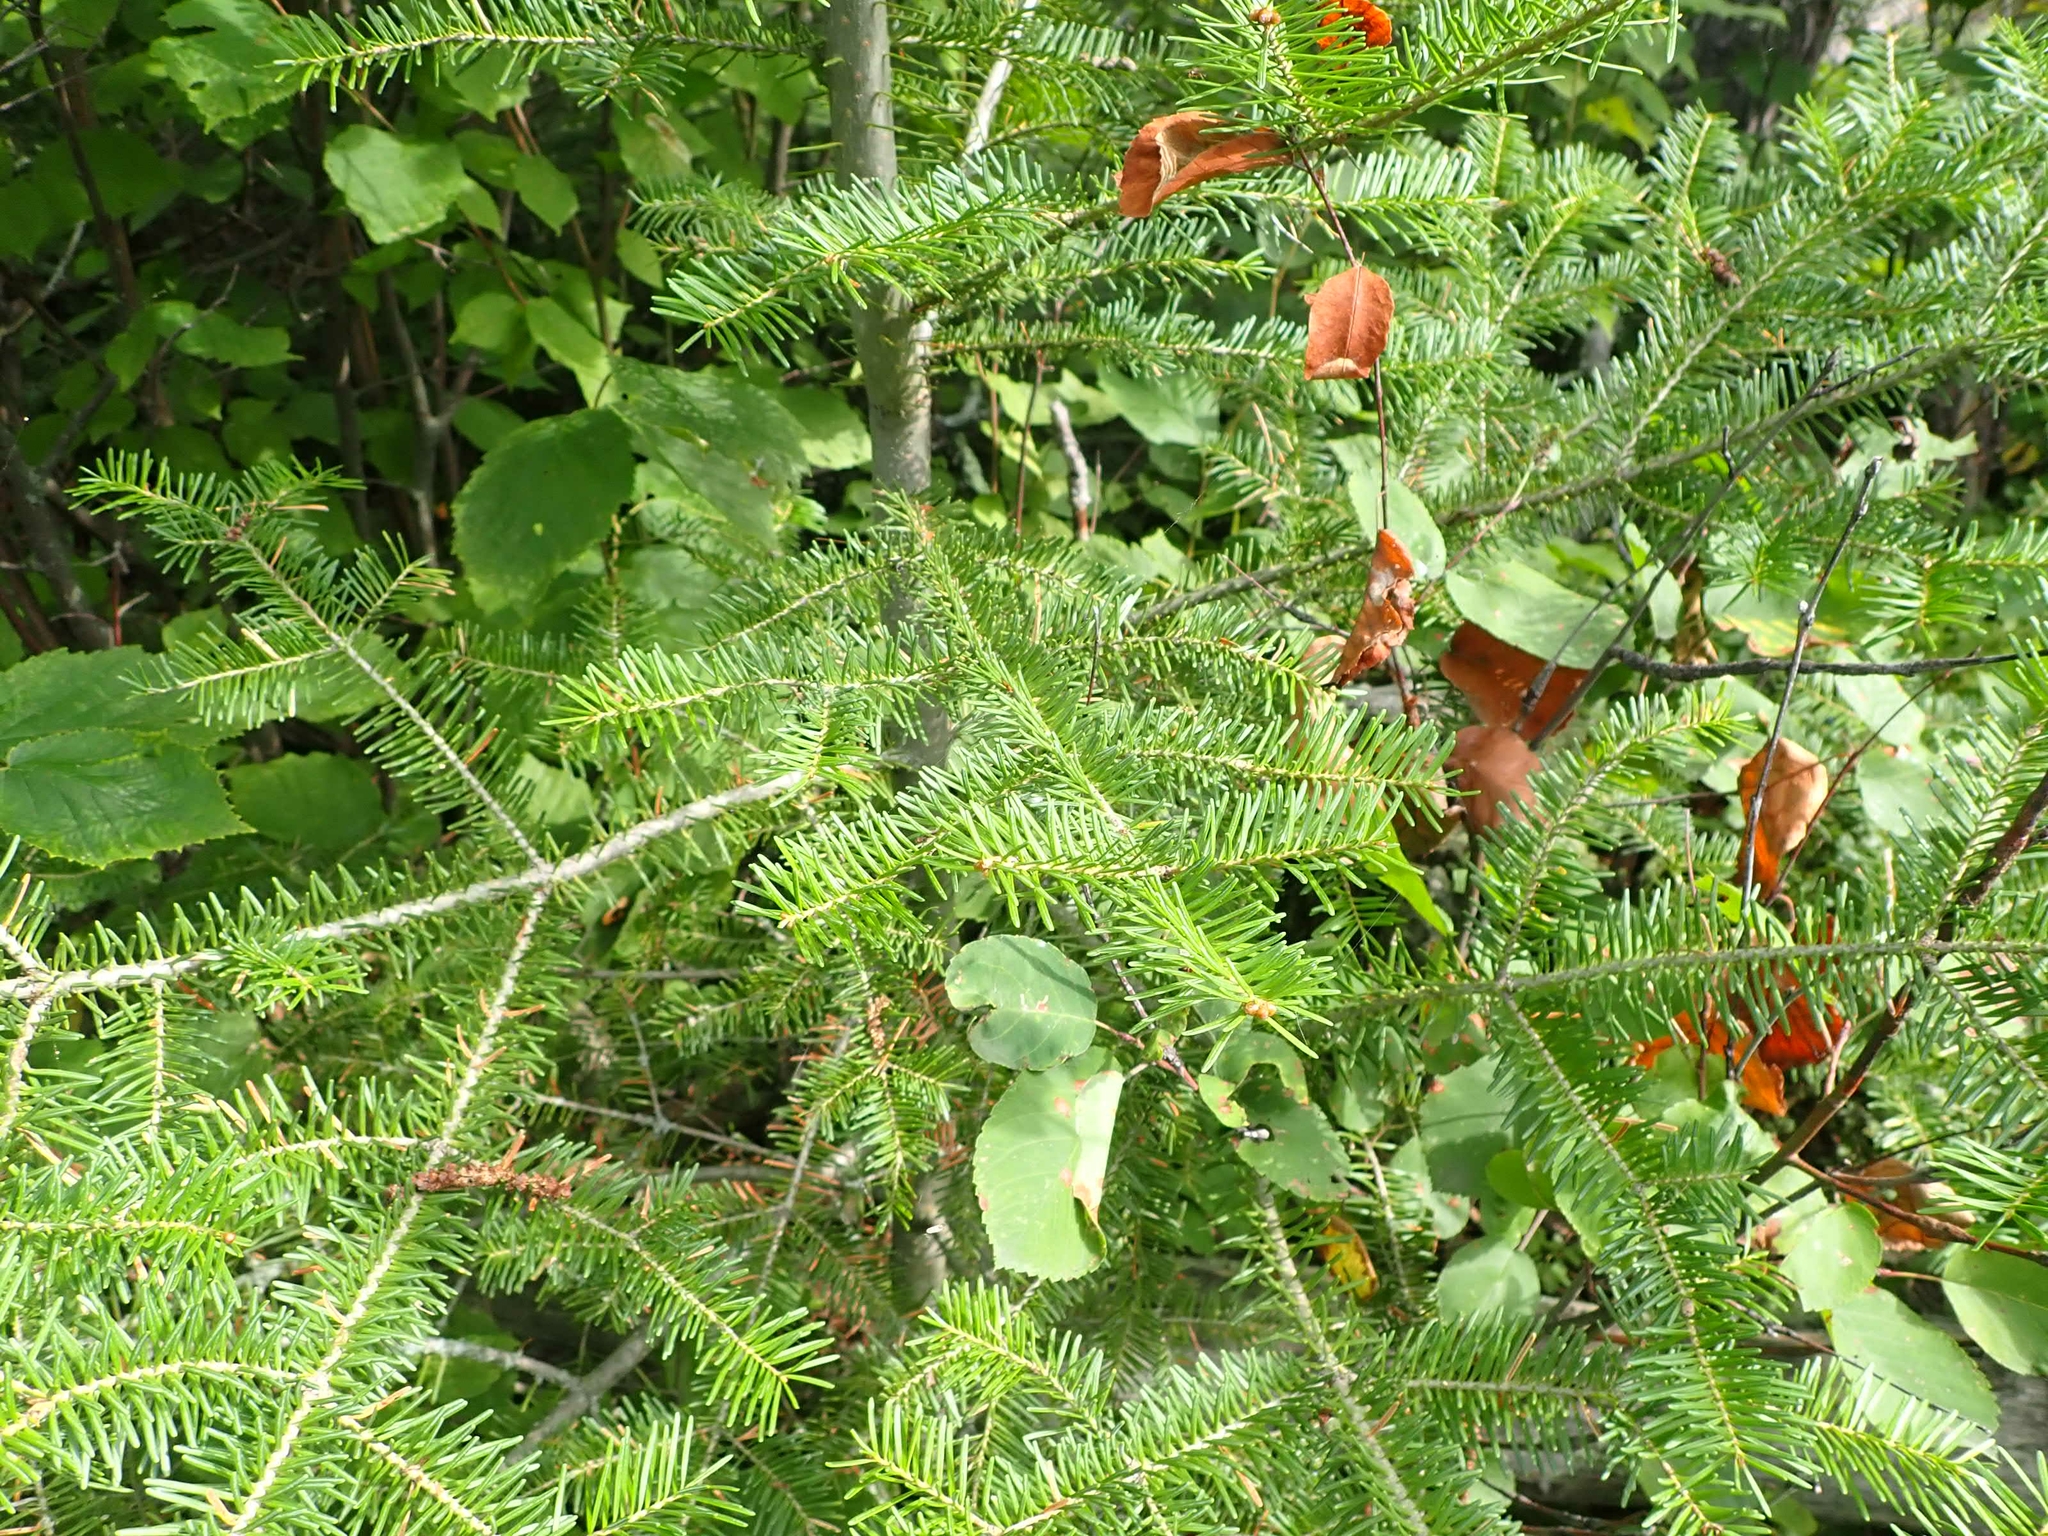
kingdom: Plantae
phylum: Tracheophyta
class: Pinopsida
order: Pinales
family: Pinaceae
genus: Abies
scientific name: Abies balsamea
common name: Balsam fir
